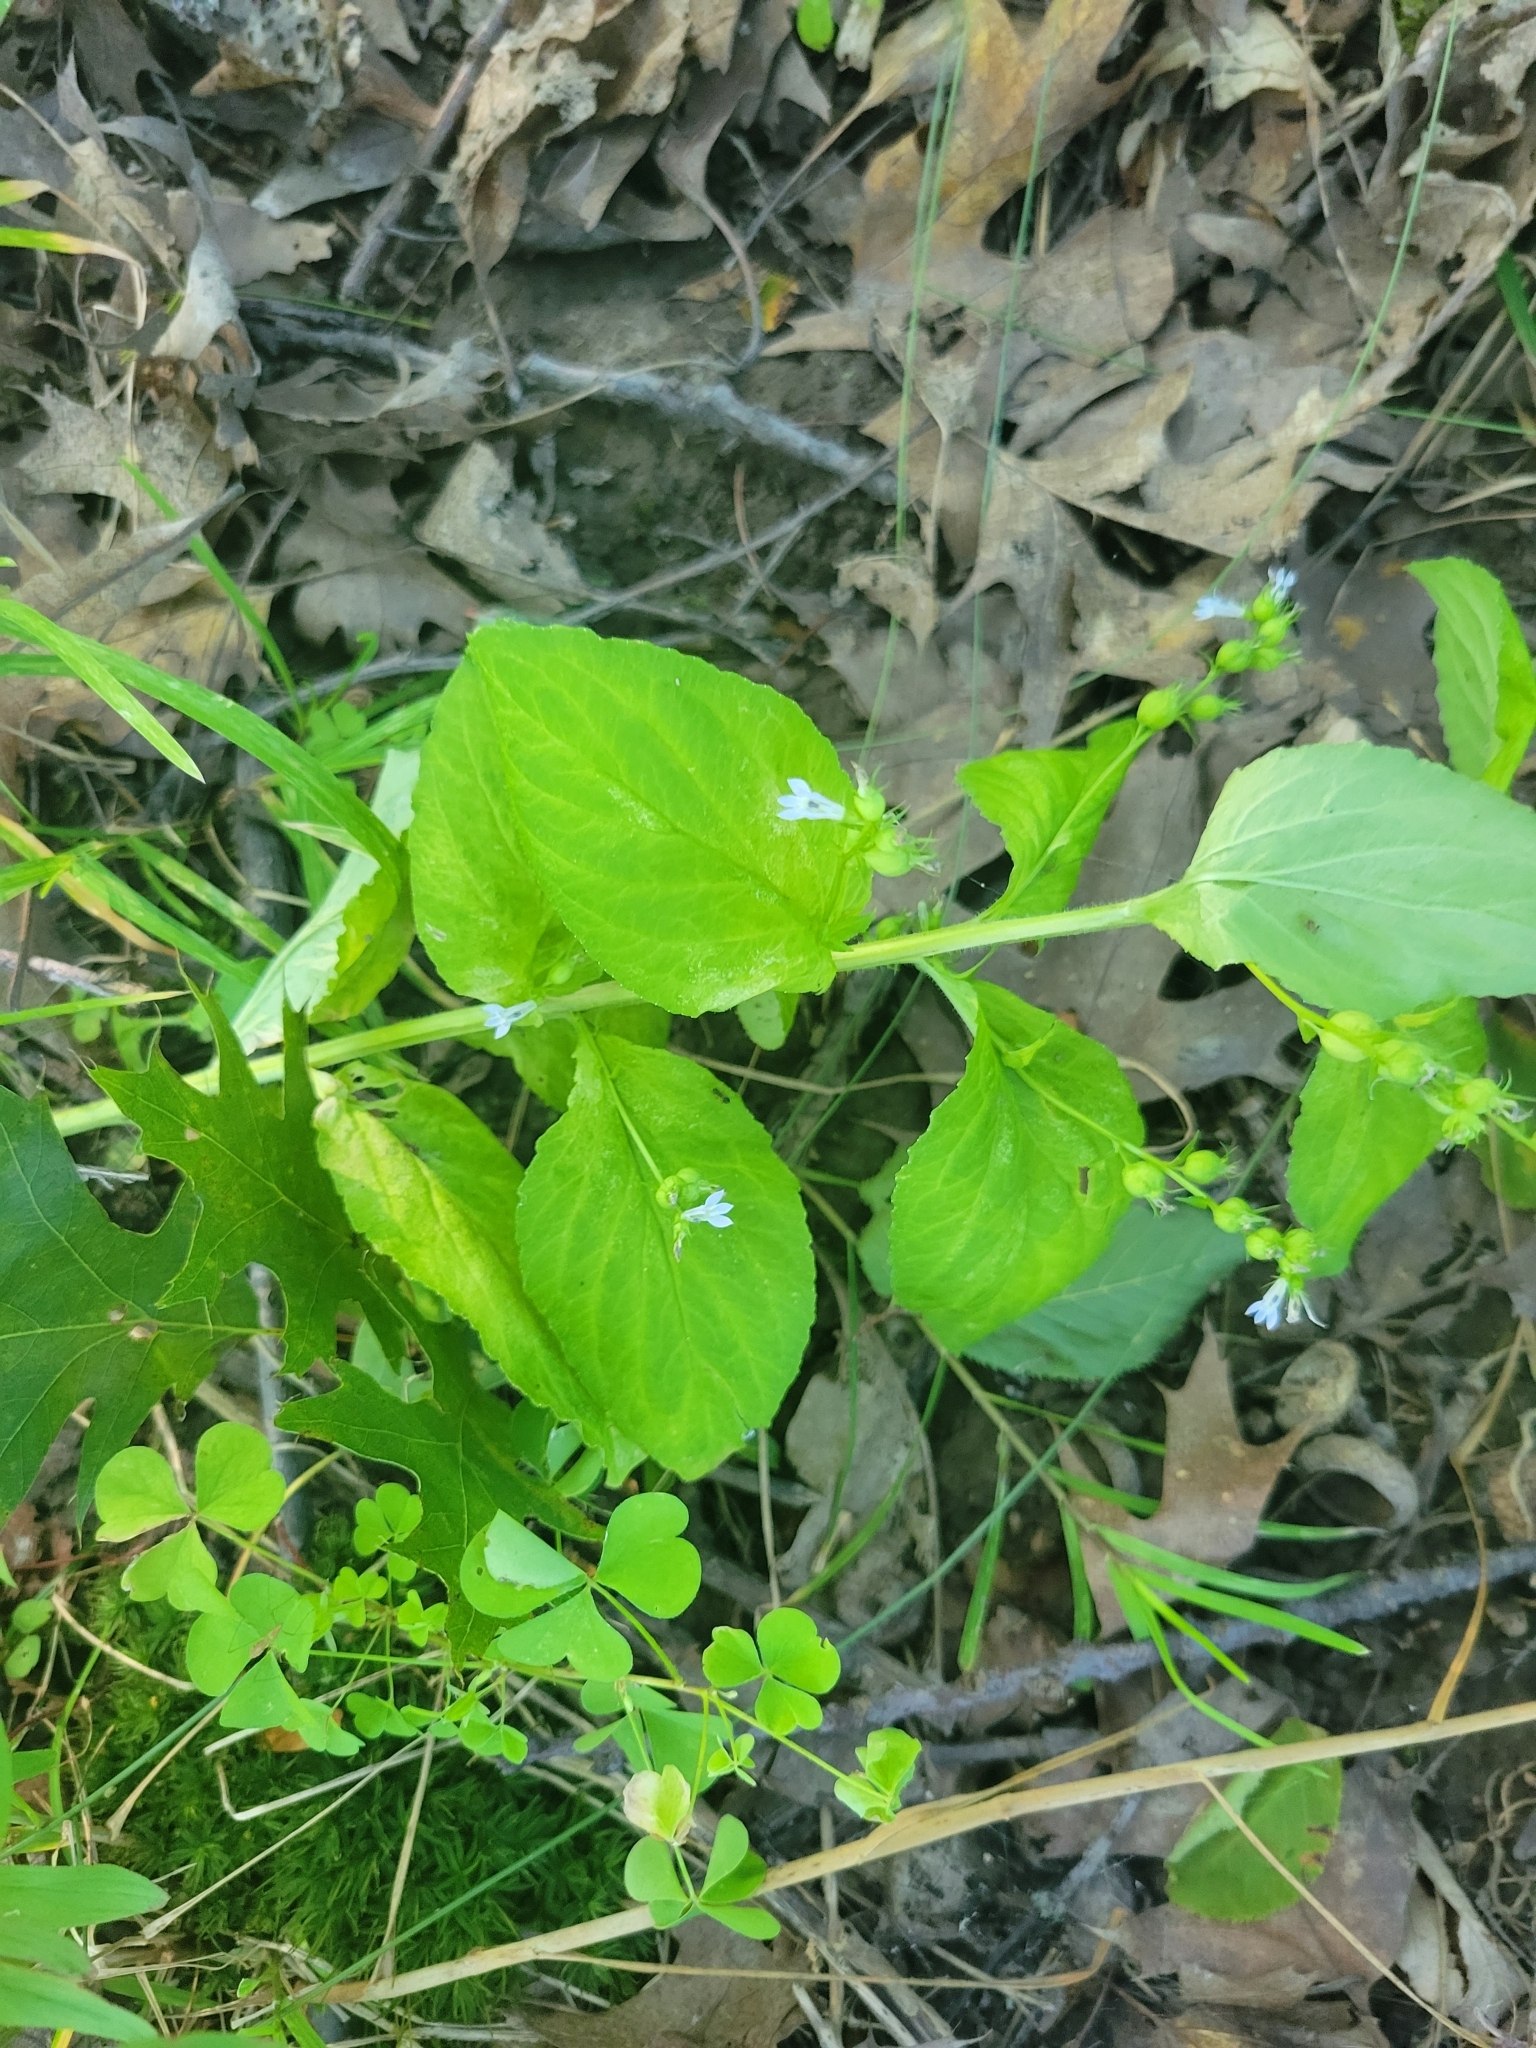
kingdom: Plantae
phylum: Tracheophyta
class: Magnoliopsida
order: Asterales
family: Campanulaceae
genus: Lobelia
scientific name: Lobelia inflata
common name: Indian tobacco
